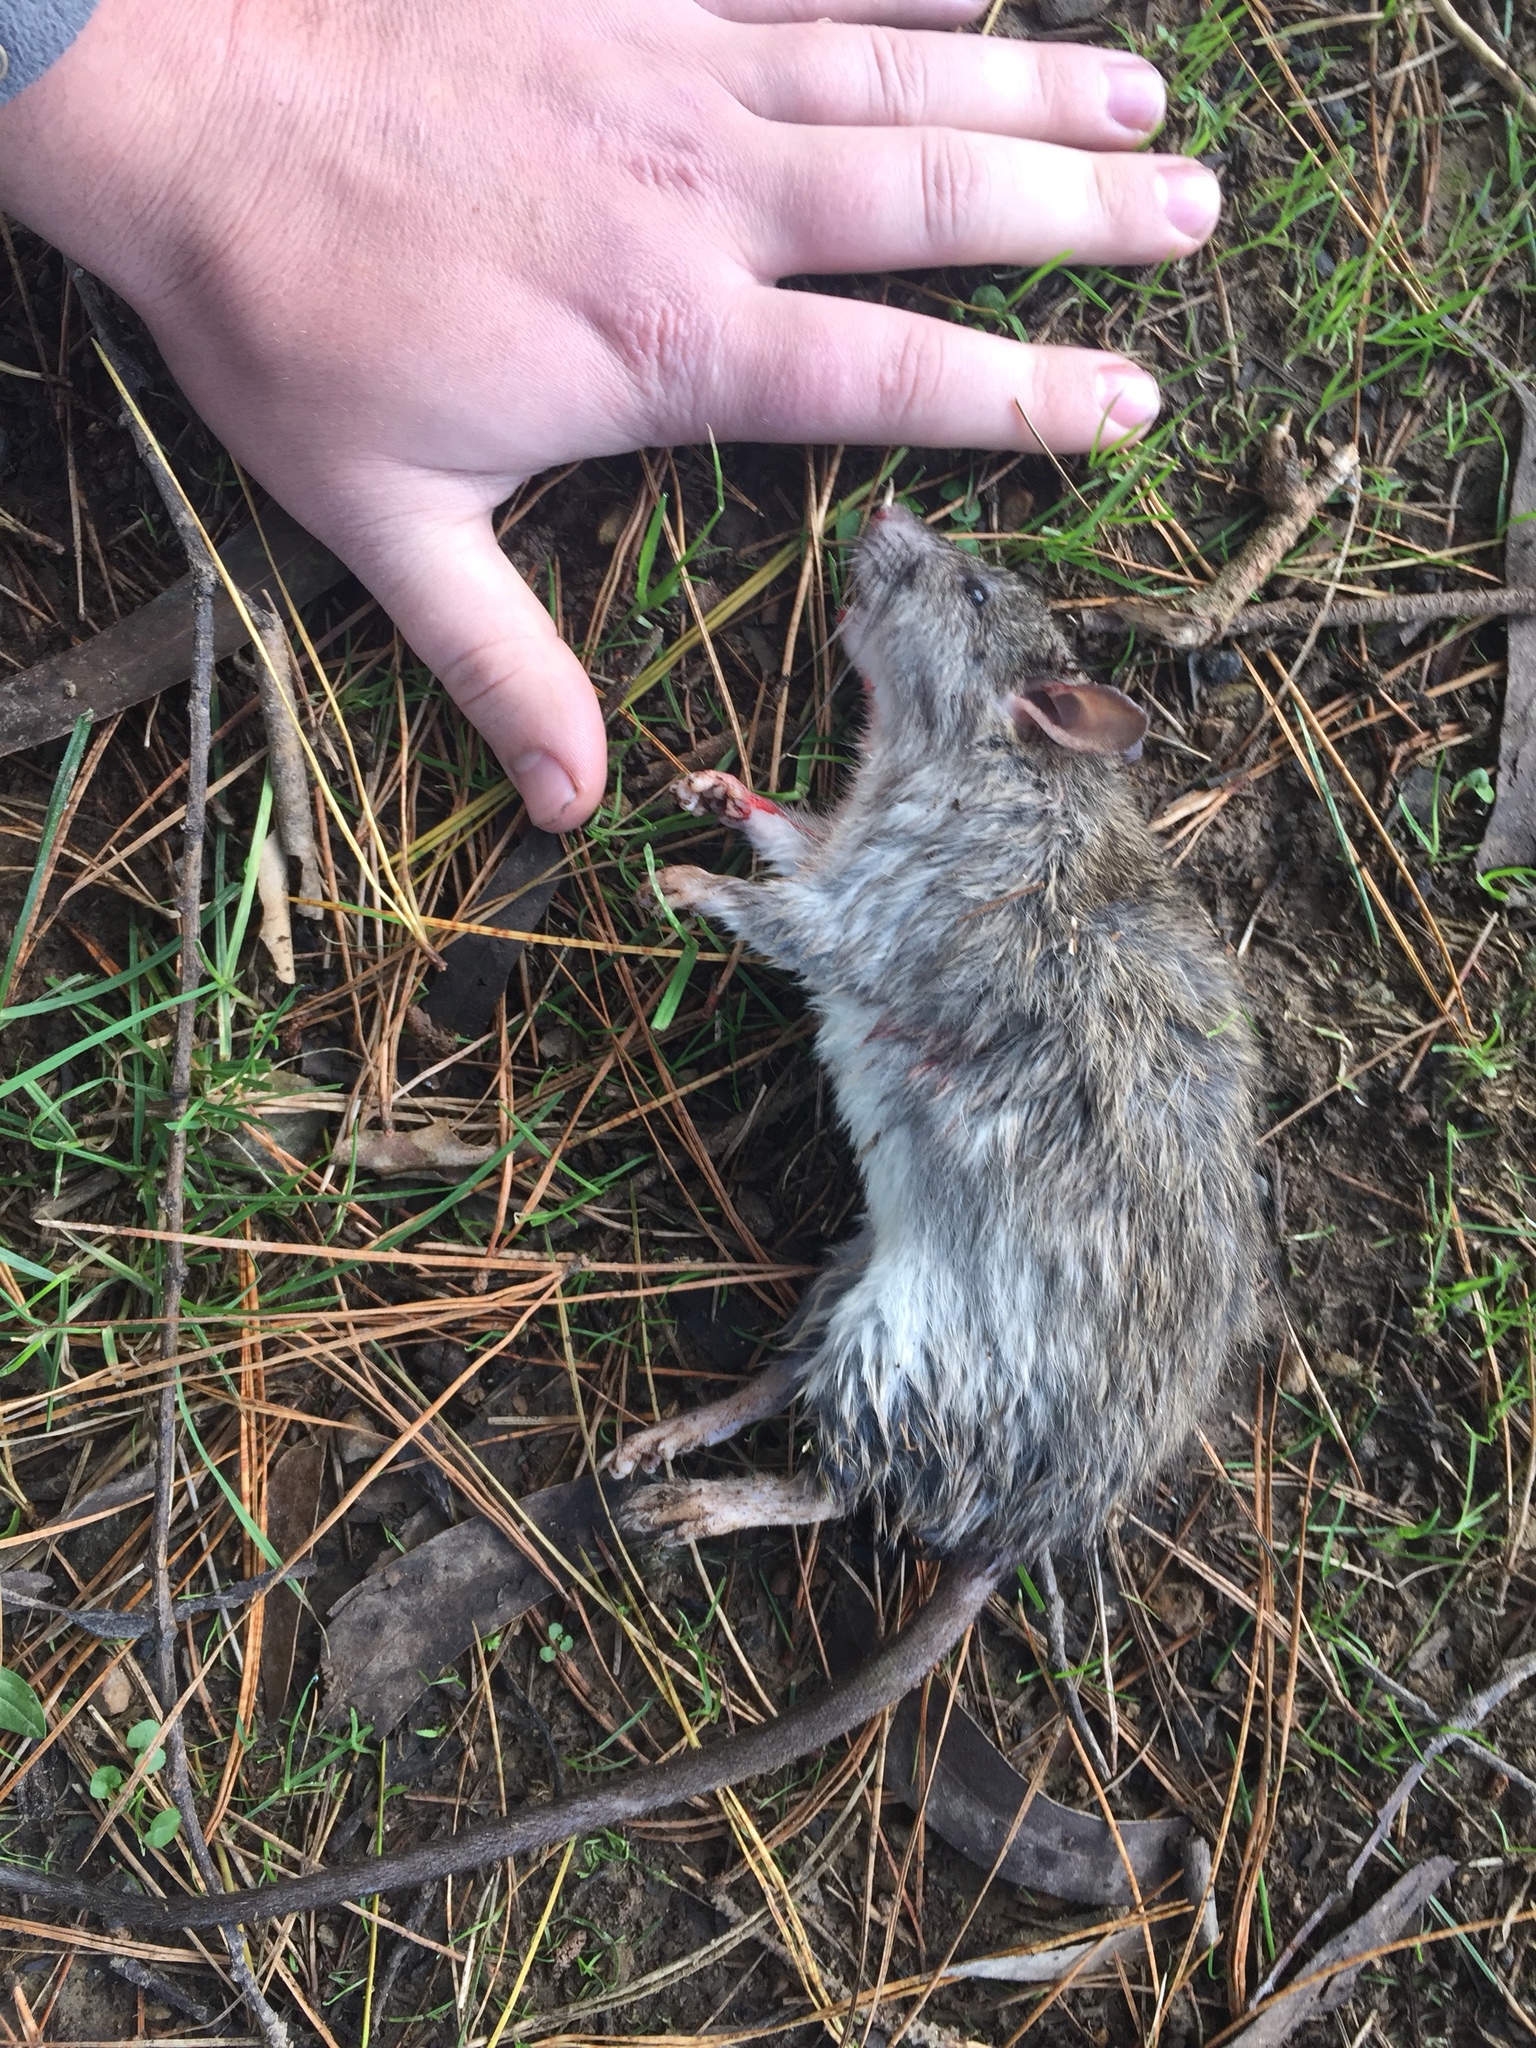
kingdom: Animalia
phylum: Chordata
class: Mammalia
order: Rodentia
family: Muridae
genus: Rattus
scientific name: Rattus rattus
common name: Black rat
